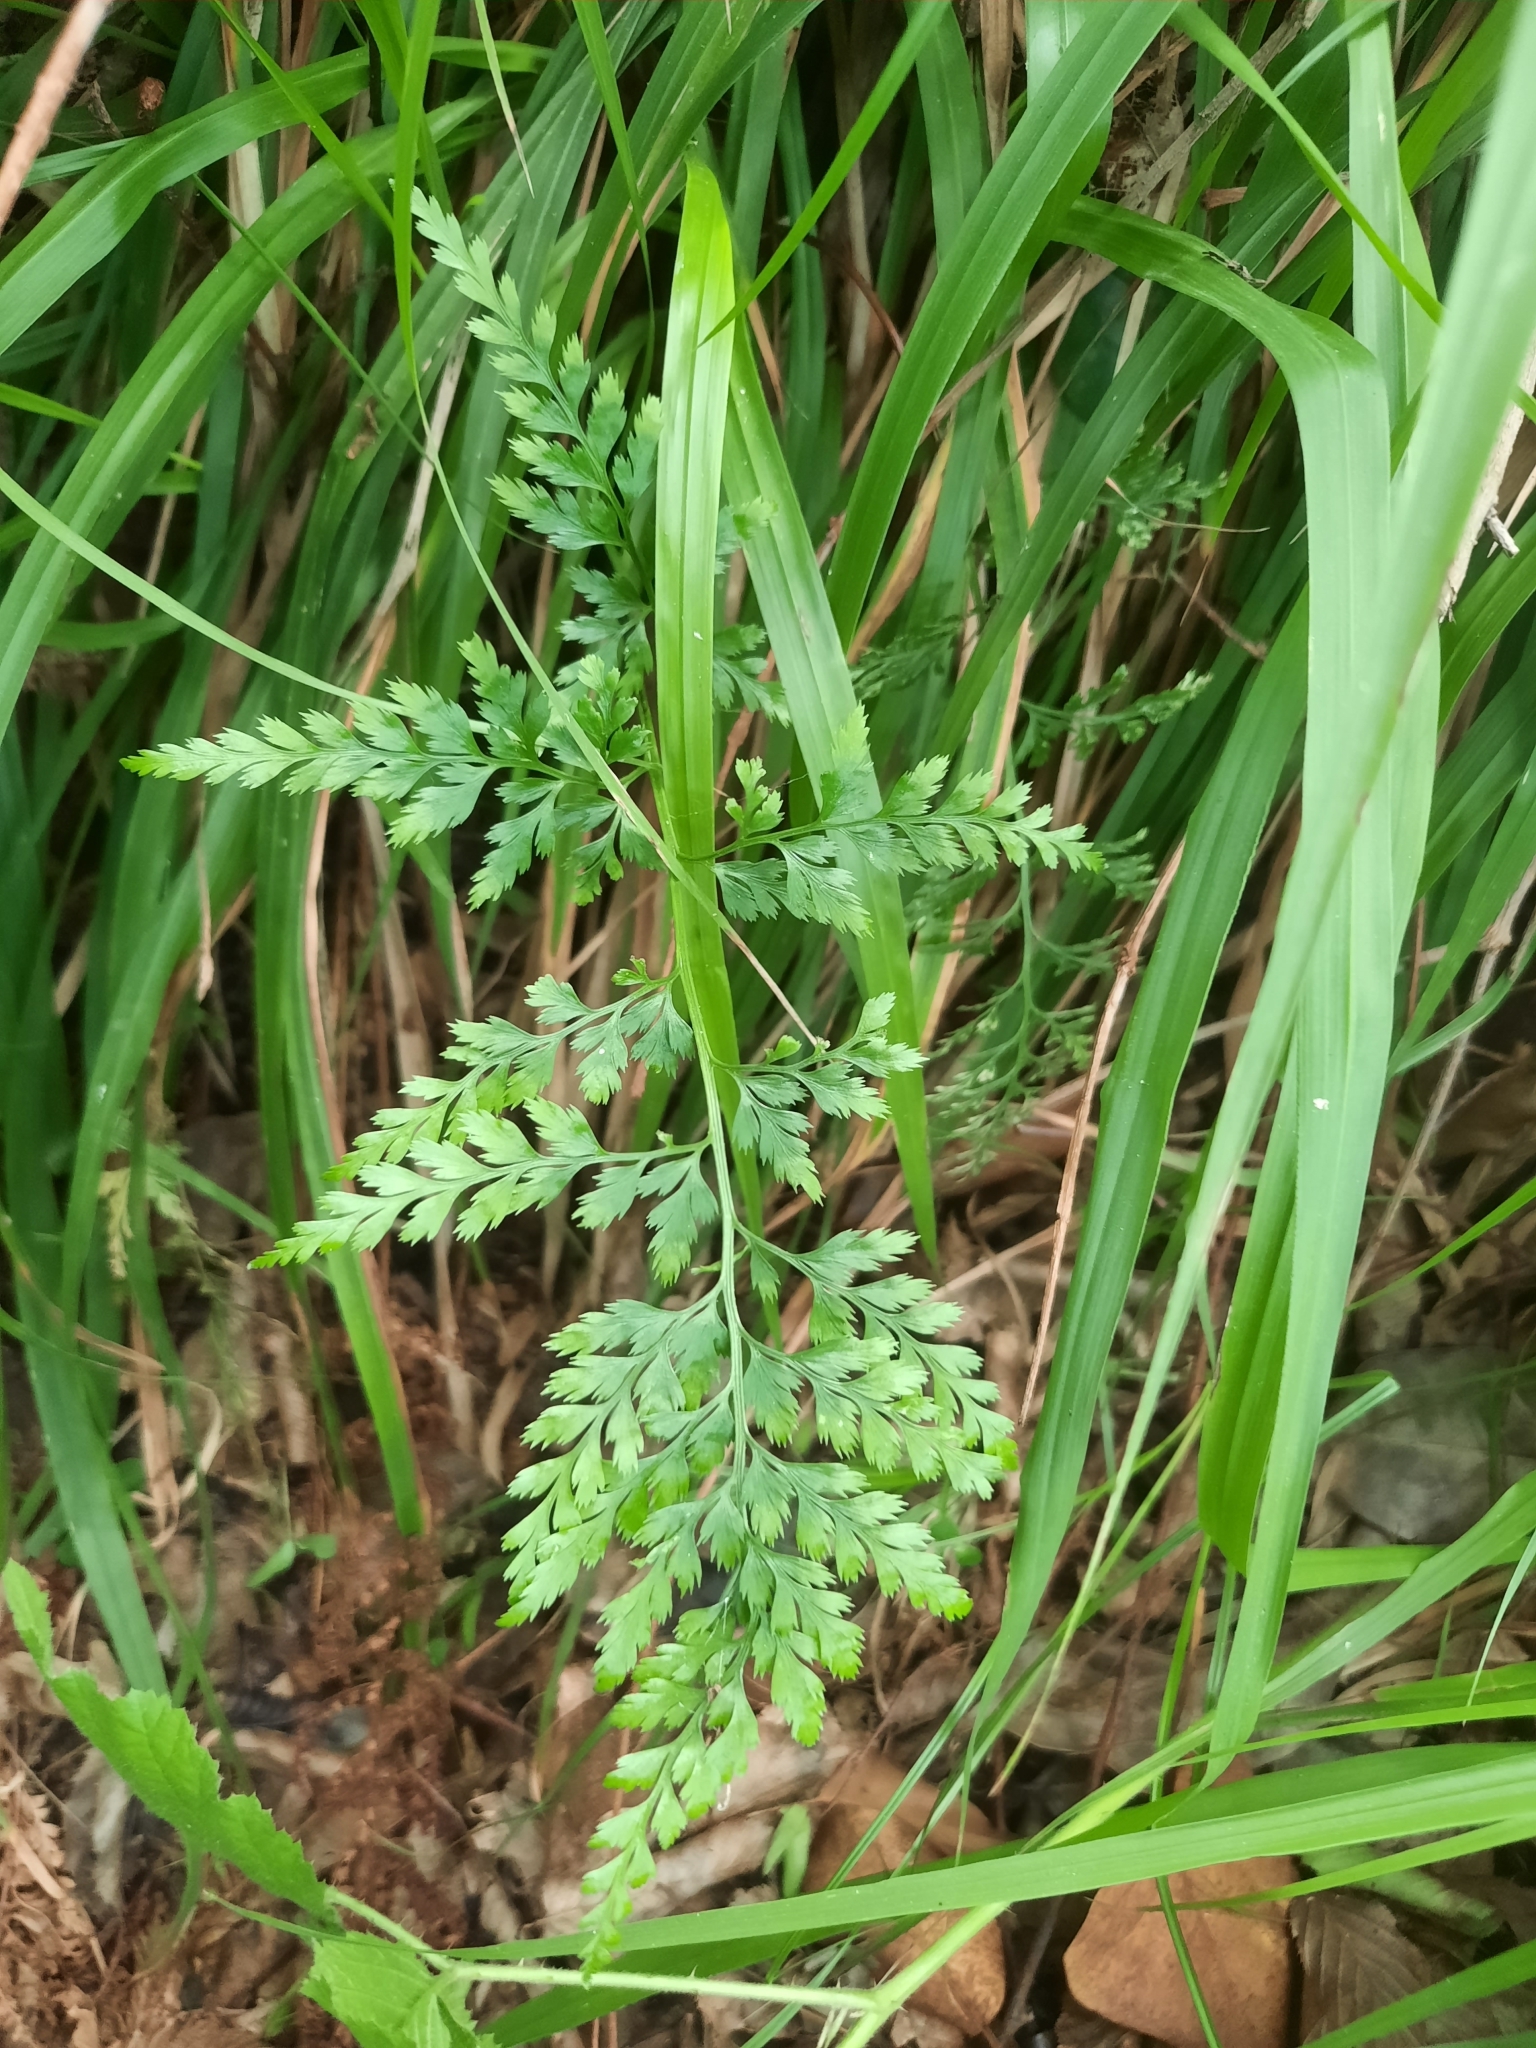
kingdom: Plantae
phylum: Tracheophyta
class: Polypodiopsida
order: Polypodiales
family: Aspleniaceae
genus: Asplenium
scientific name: Asplenium adiantum-nigrum
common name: Black spleenwort
